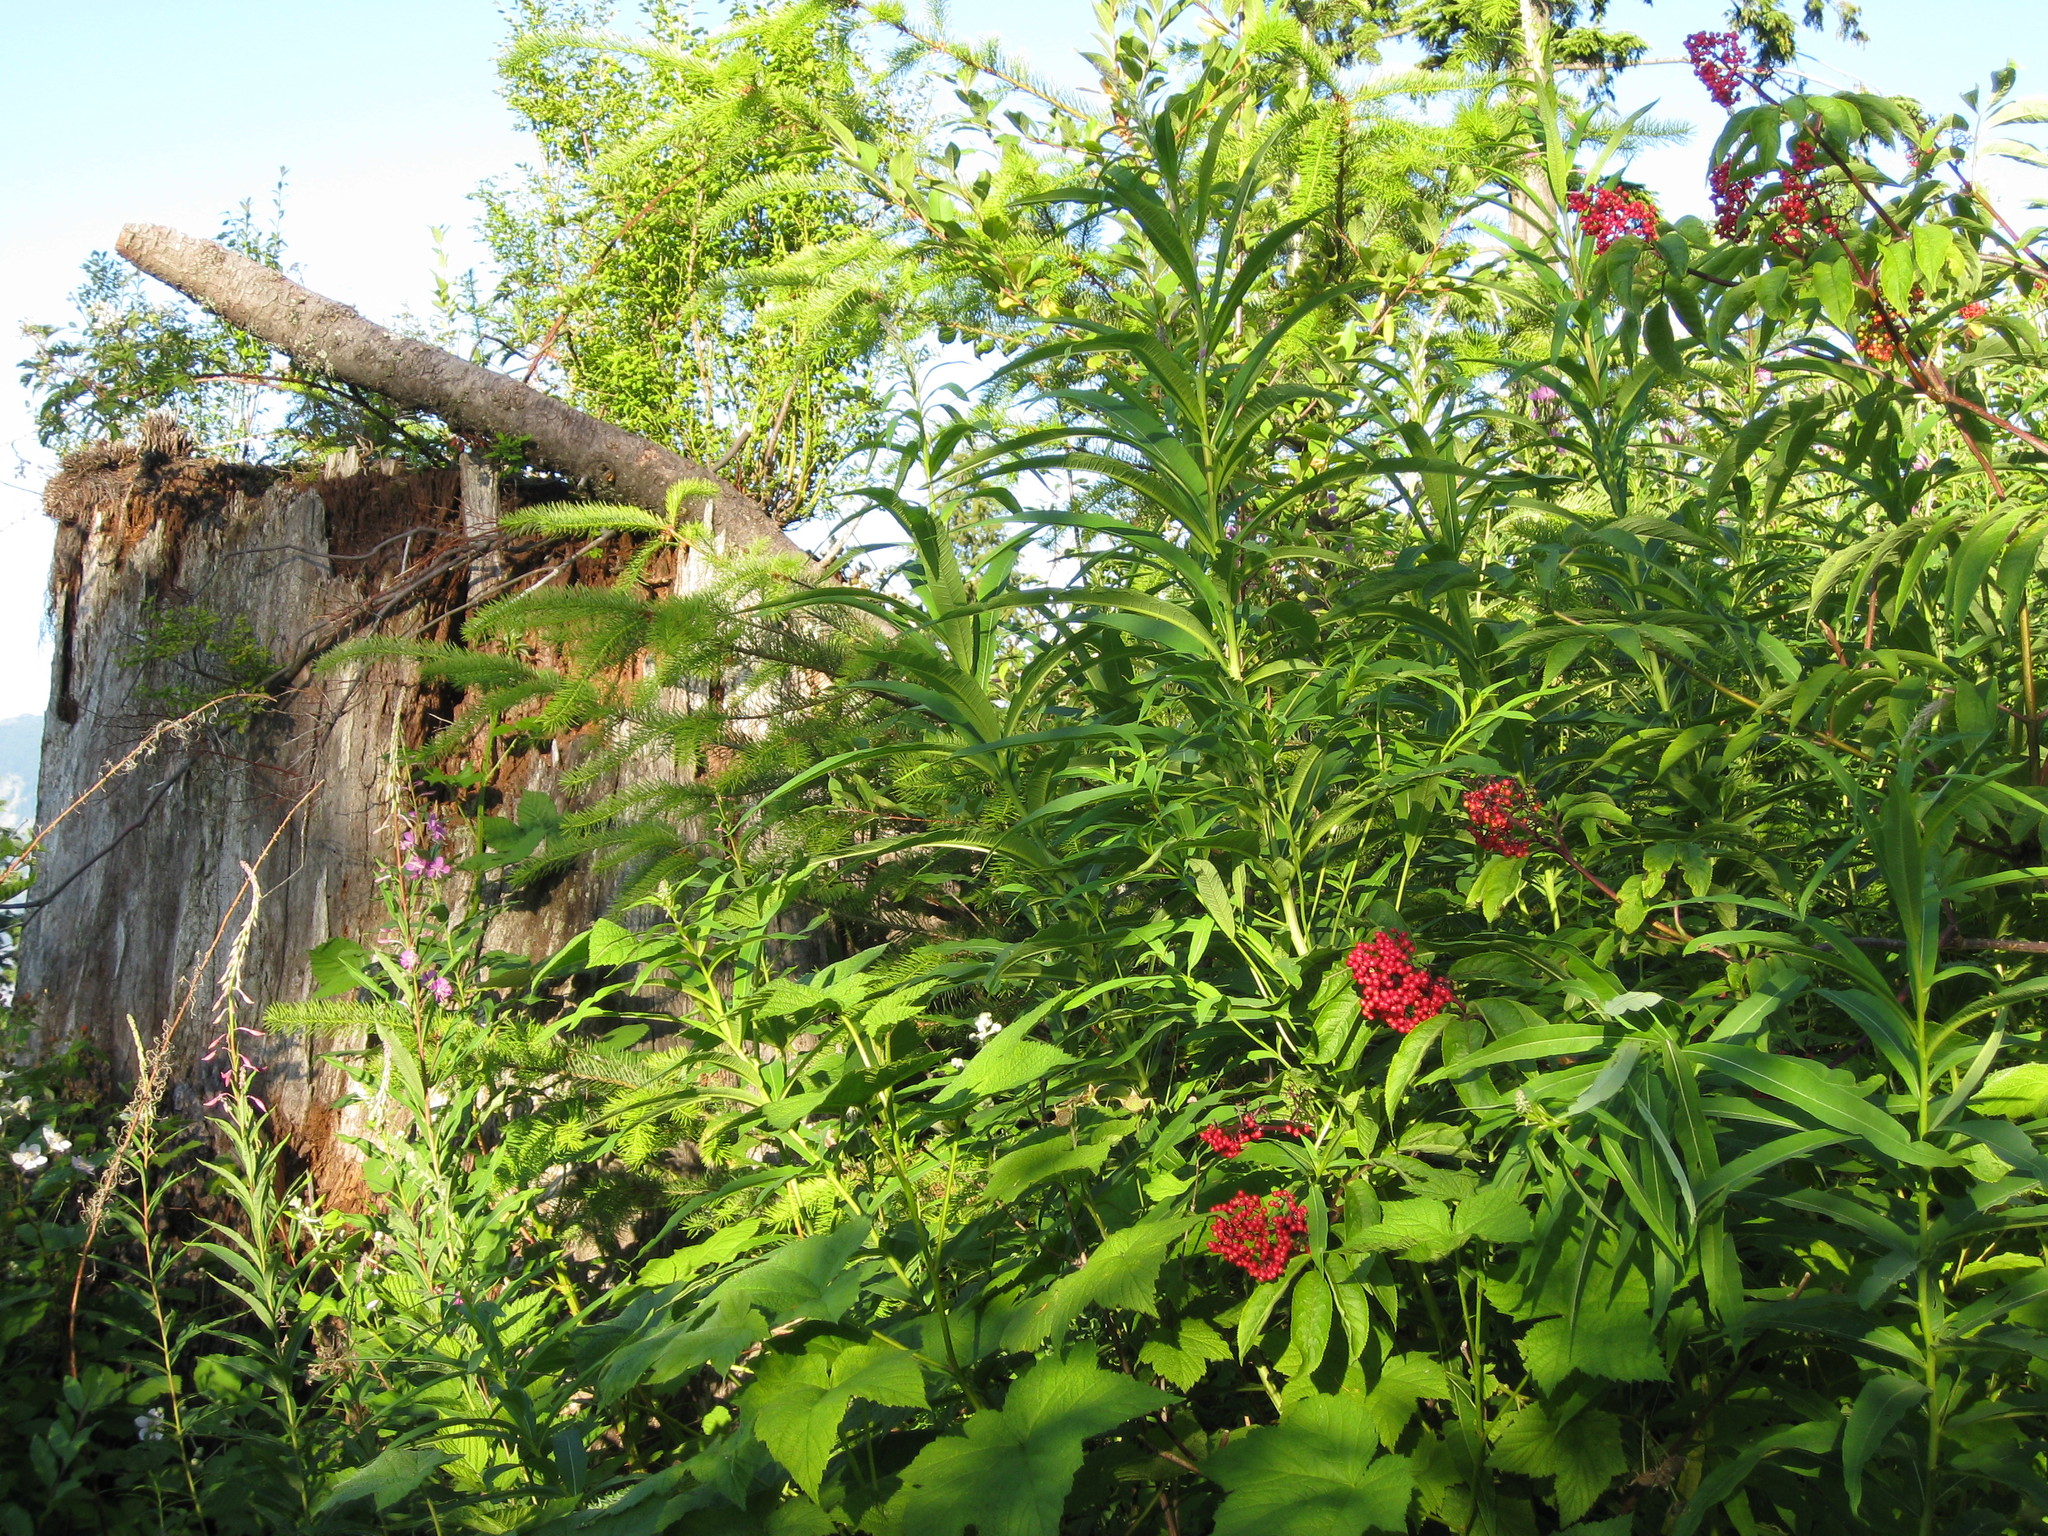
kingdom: Plantae
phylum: Tracheophyta
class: Magnoliopsida
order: Dipsacales
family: Viburnaceae
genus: Sambucus
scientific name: Sambucus racemosa
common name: Red-berried elder
